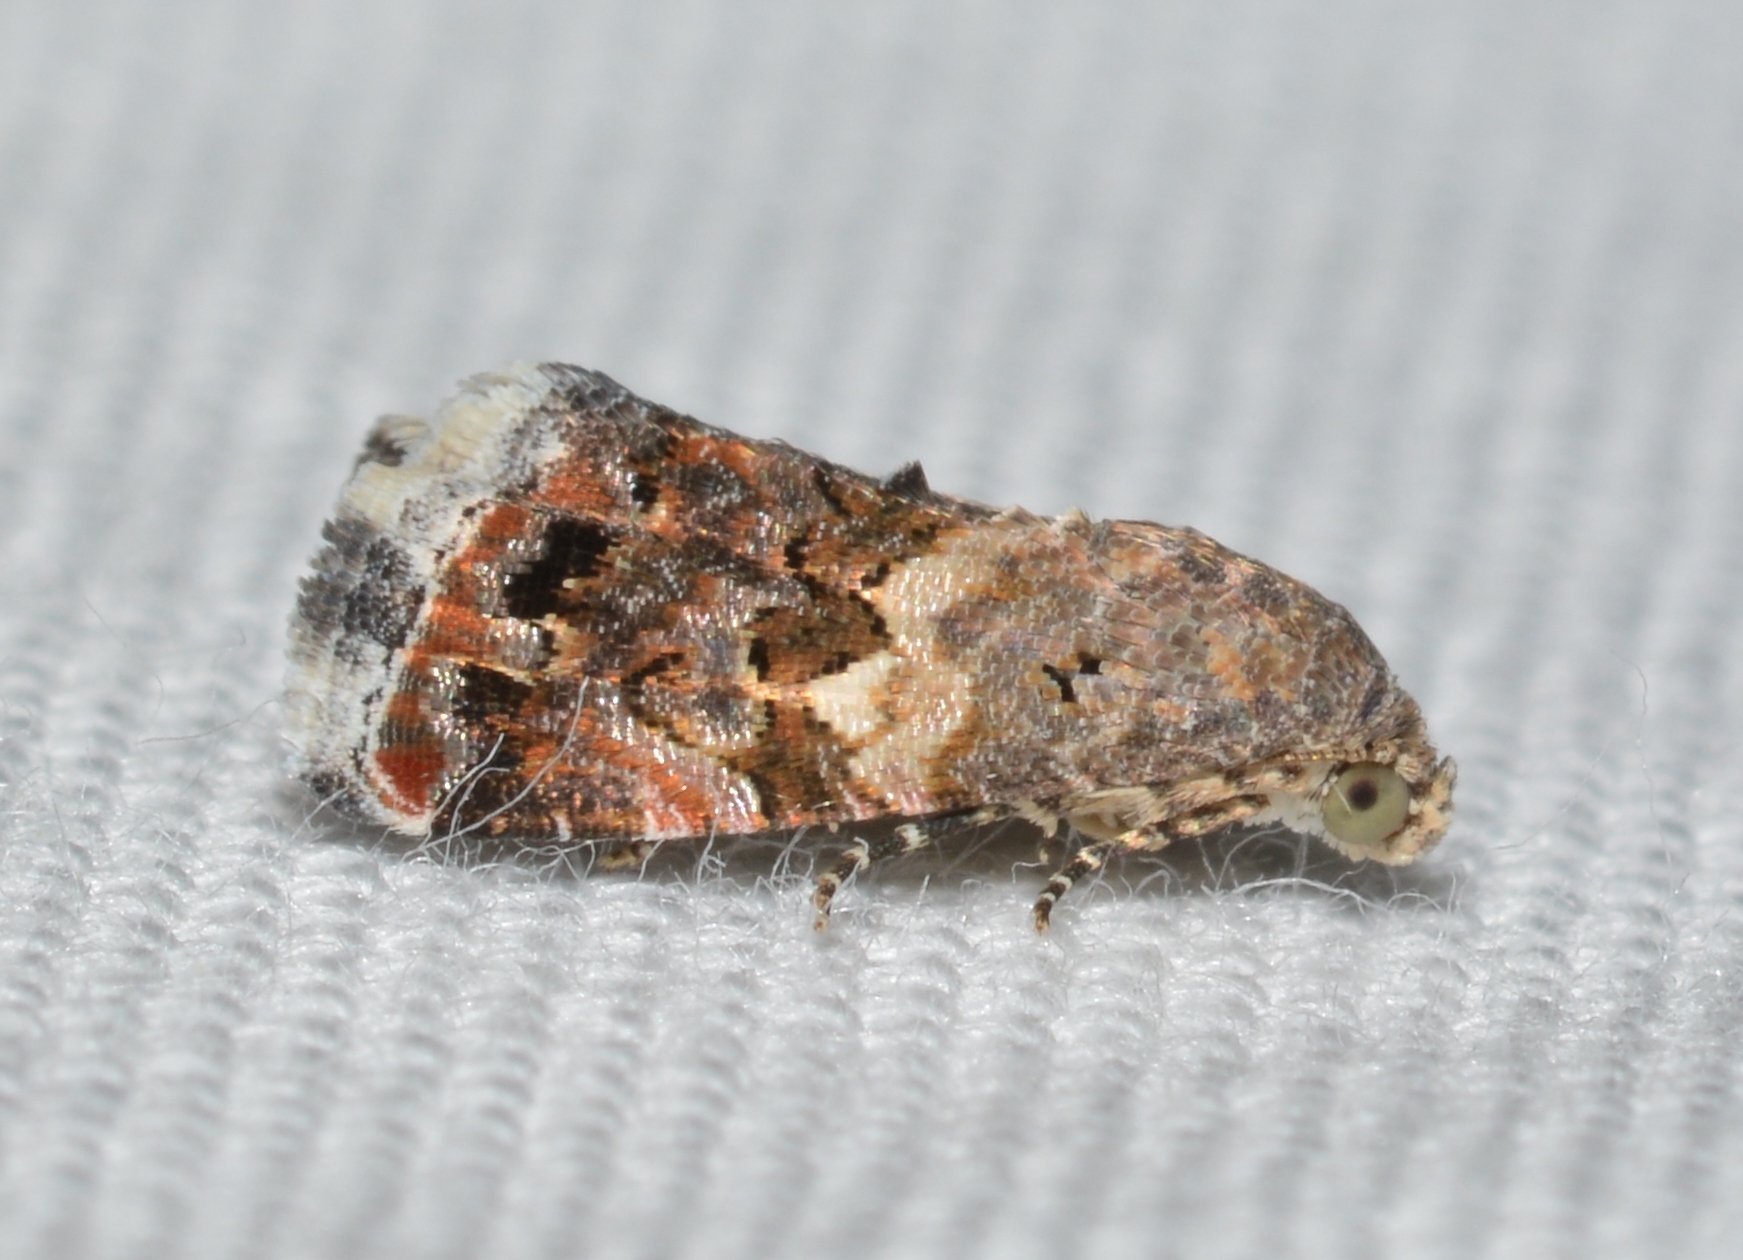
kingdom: Animalia
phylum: Arthropoda
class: Insecta
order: Lepidoptera
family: Noctuidae
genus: Tripudia
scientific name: Tripudia luxuriosa
